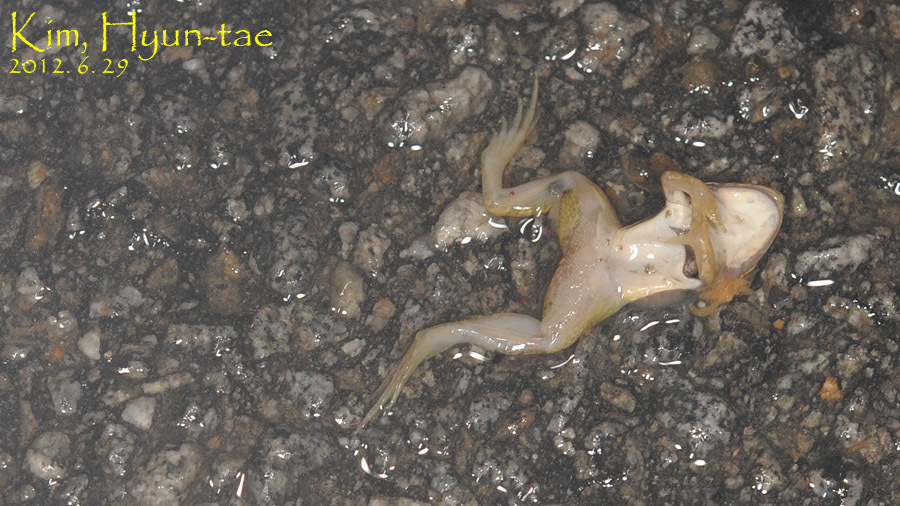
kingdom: Animalia
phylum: Chordata
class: Amphibia
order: Anura
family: Ranidae
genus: Pelophylax
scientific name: Pelophylax nigromaculatus
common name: Black-spotted pond frog
